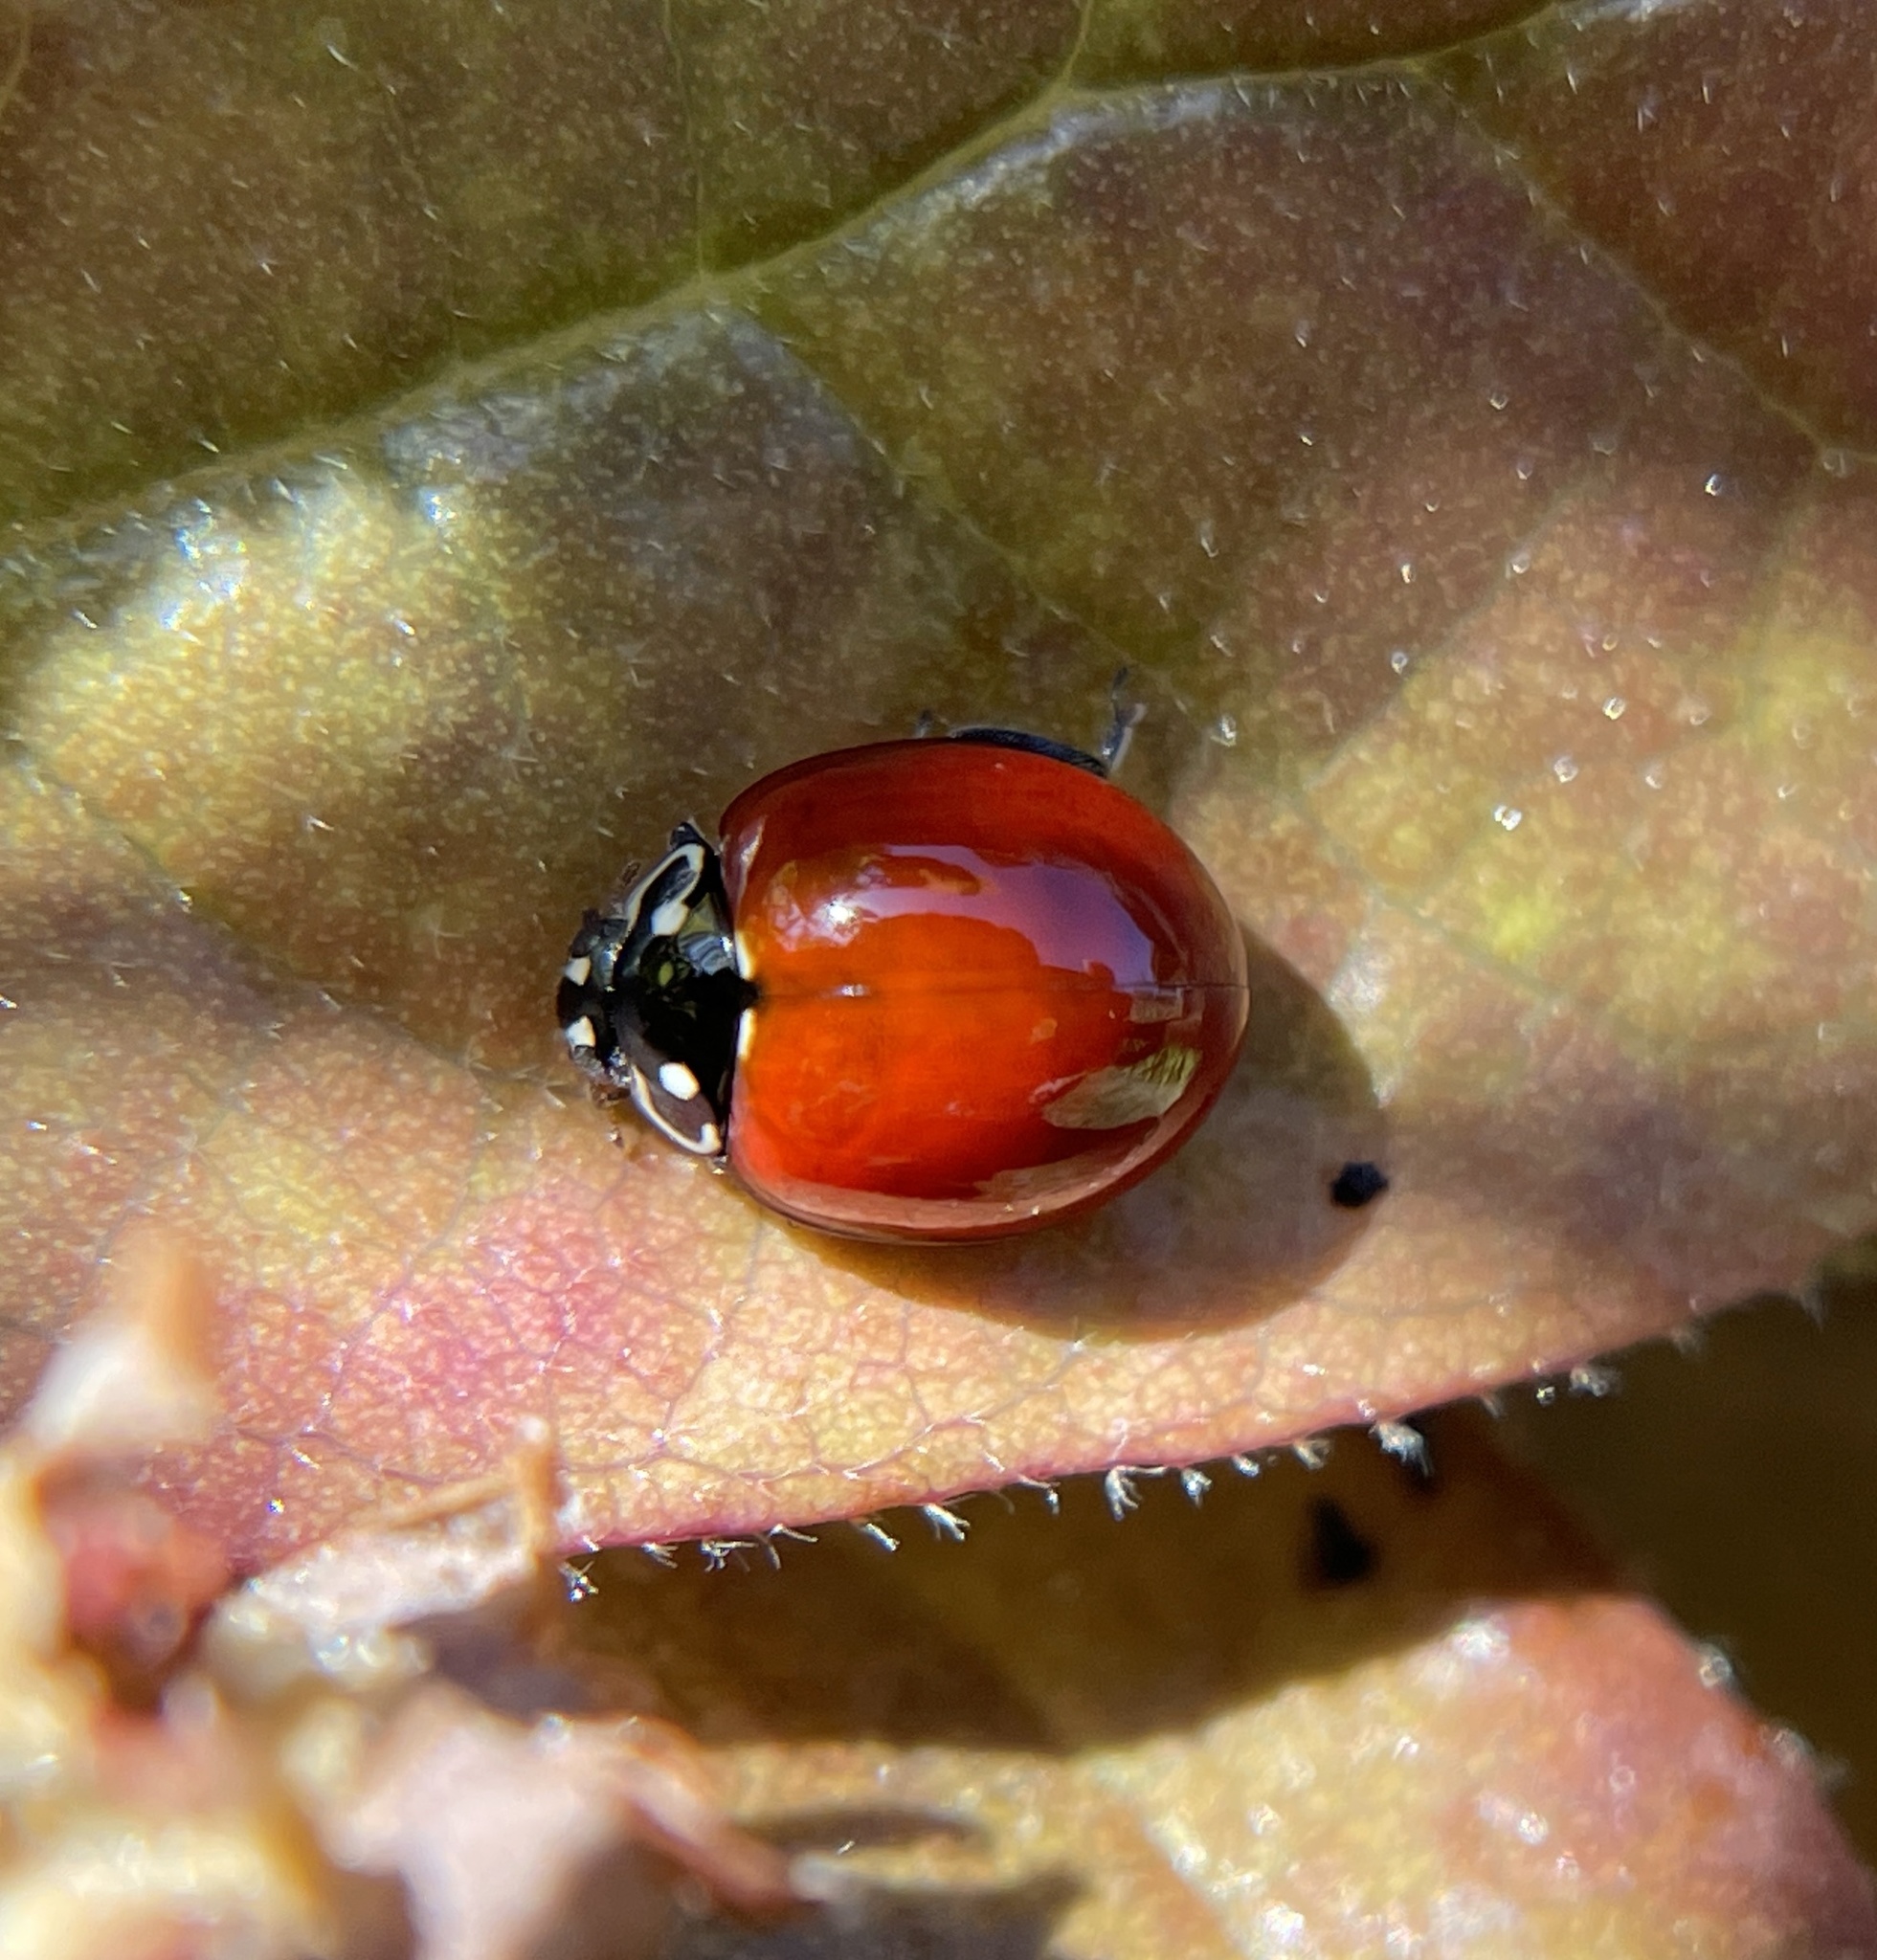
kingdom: Animalia
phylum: Arthropoda
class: Insecta
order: Coleoptera
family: Coccinellidae
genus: Cycloneda
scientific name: Cycloneda sanguinea
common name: Ladybird beetle
